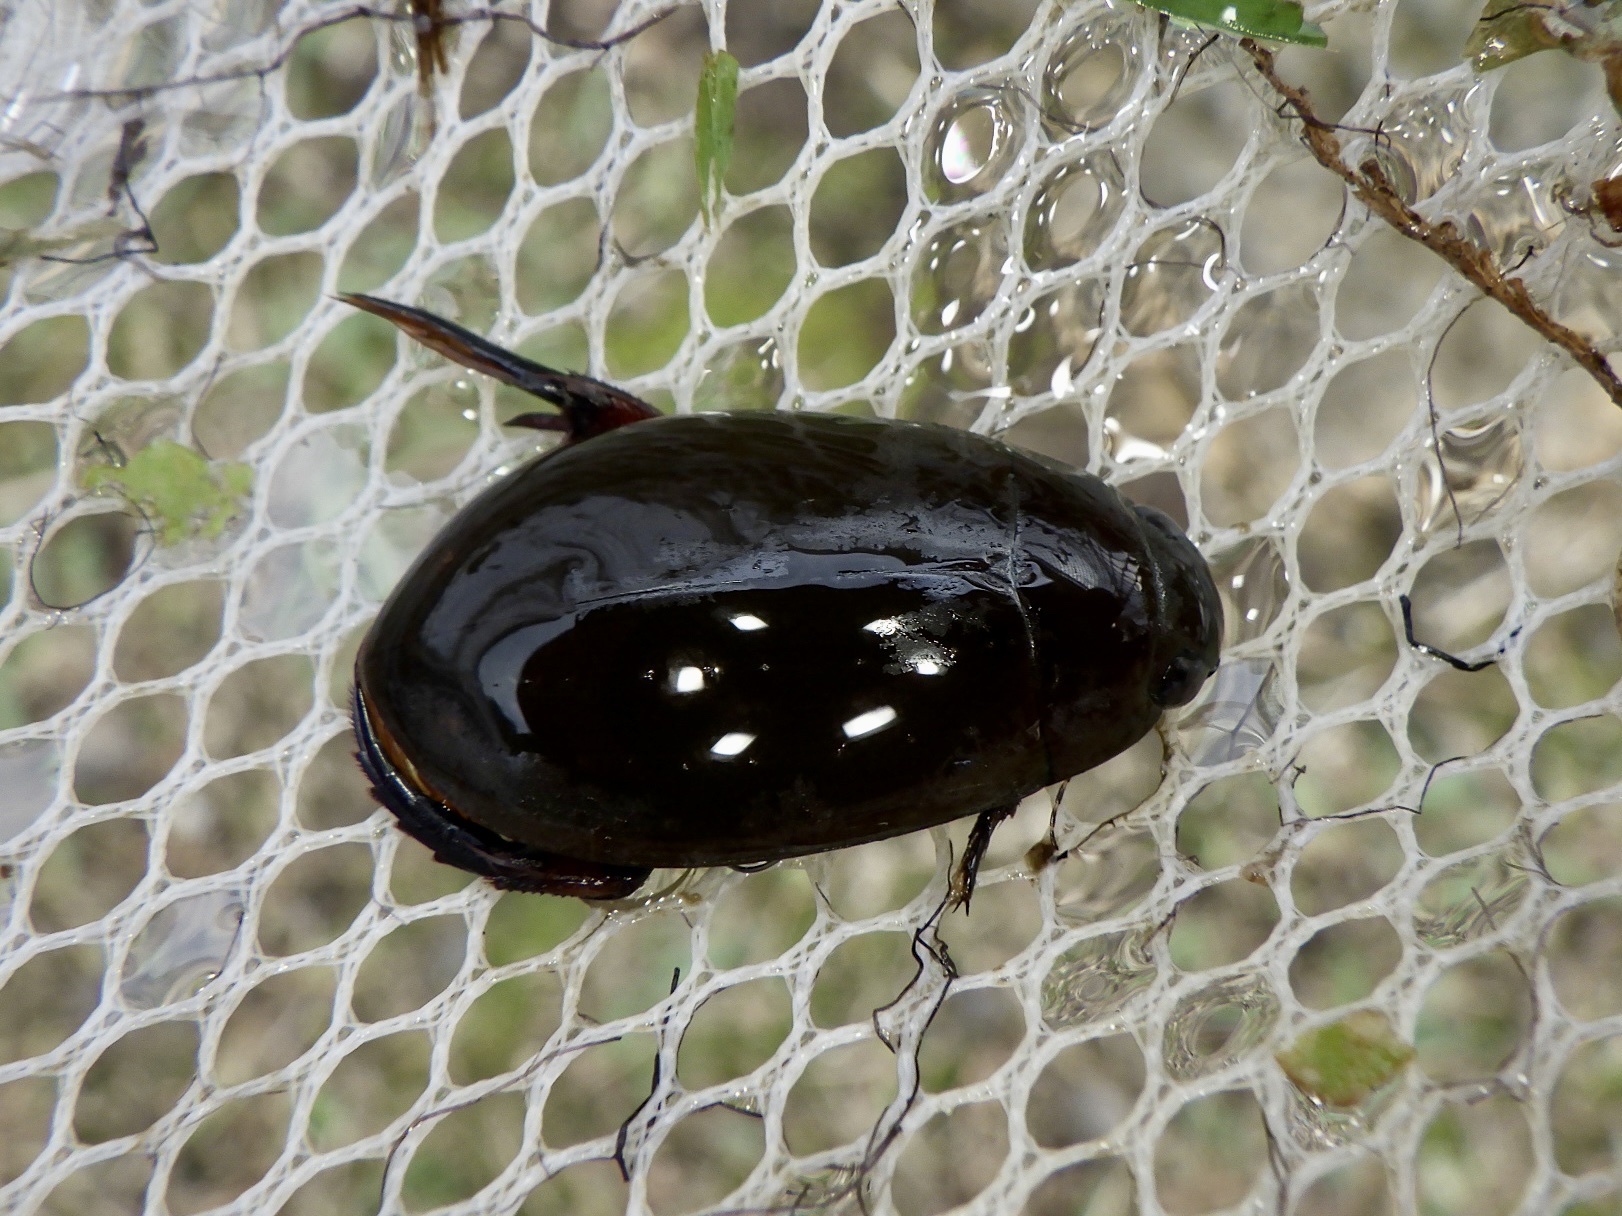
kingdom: Animalia
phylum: Arthropoda
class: Insecta
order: Coleoptera
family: Dytiscidae
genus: Cybister
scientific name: Cybister brevis
